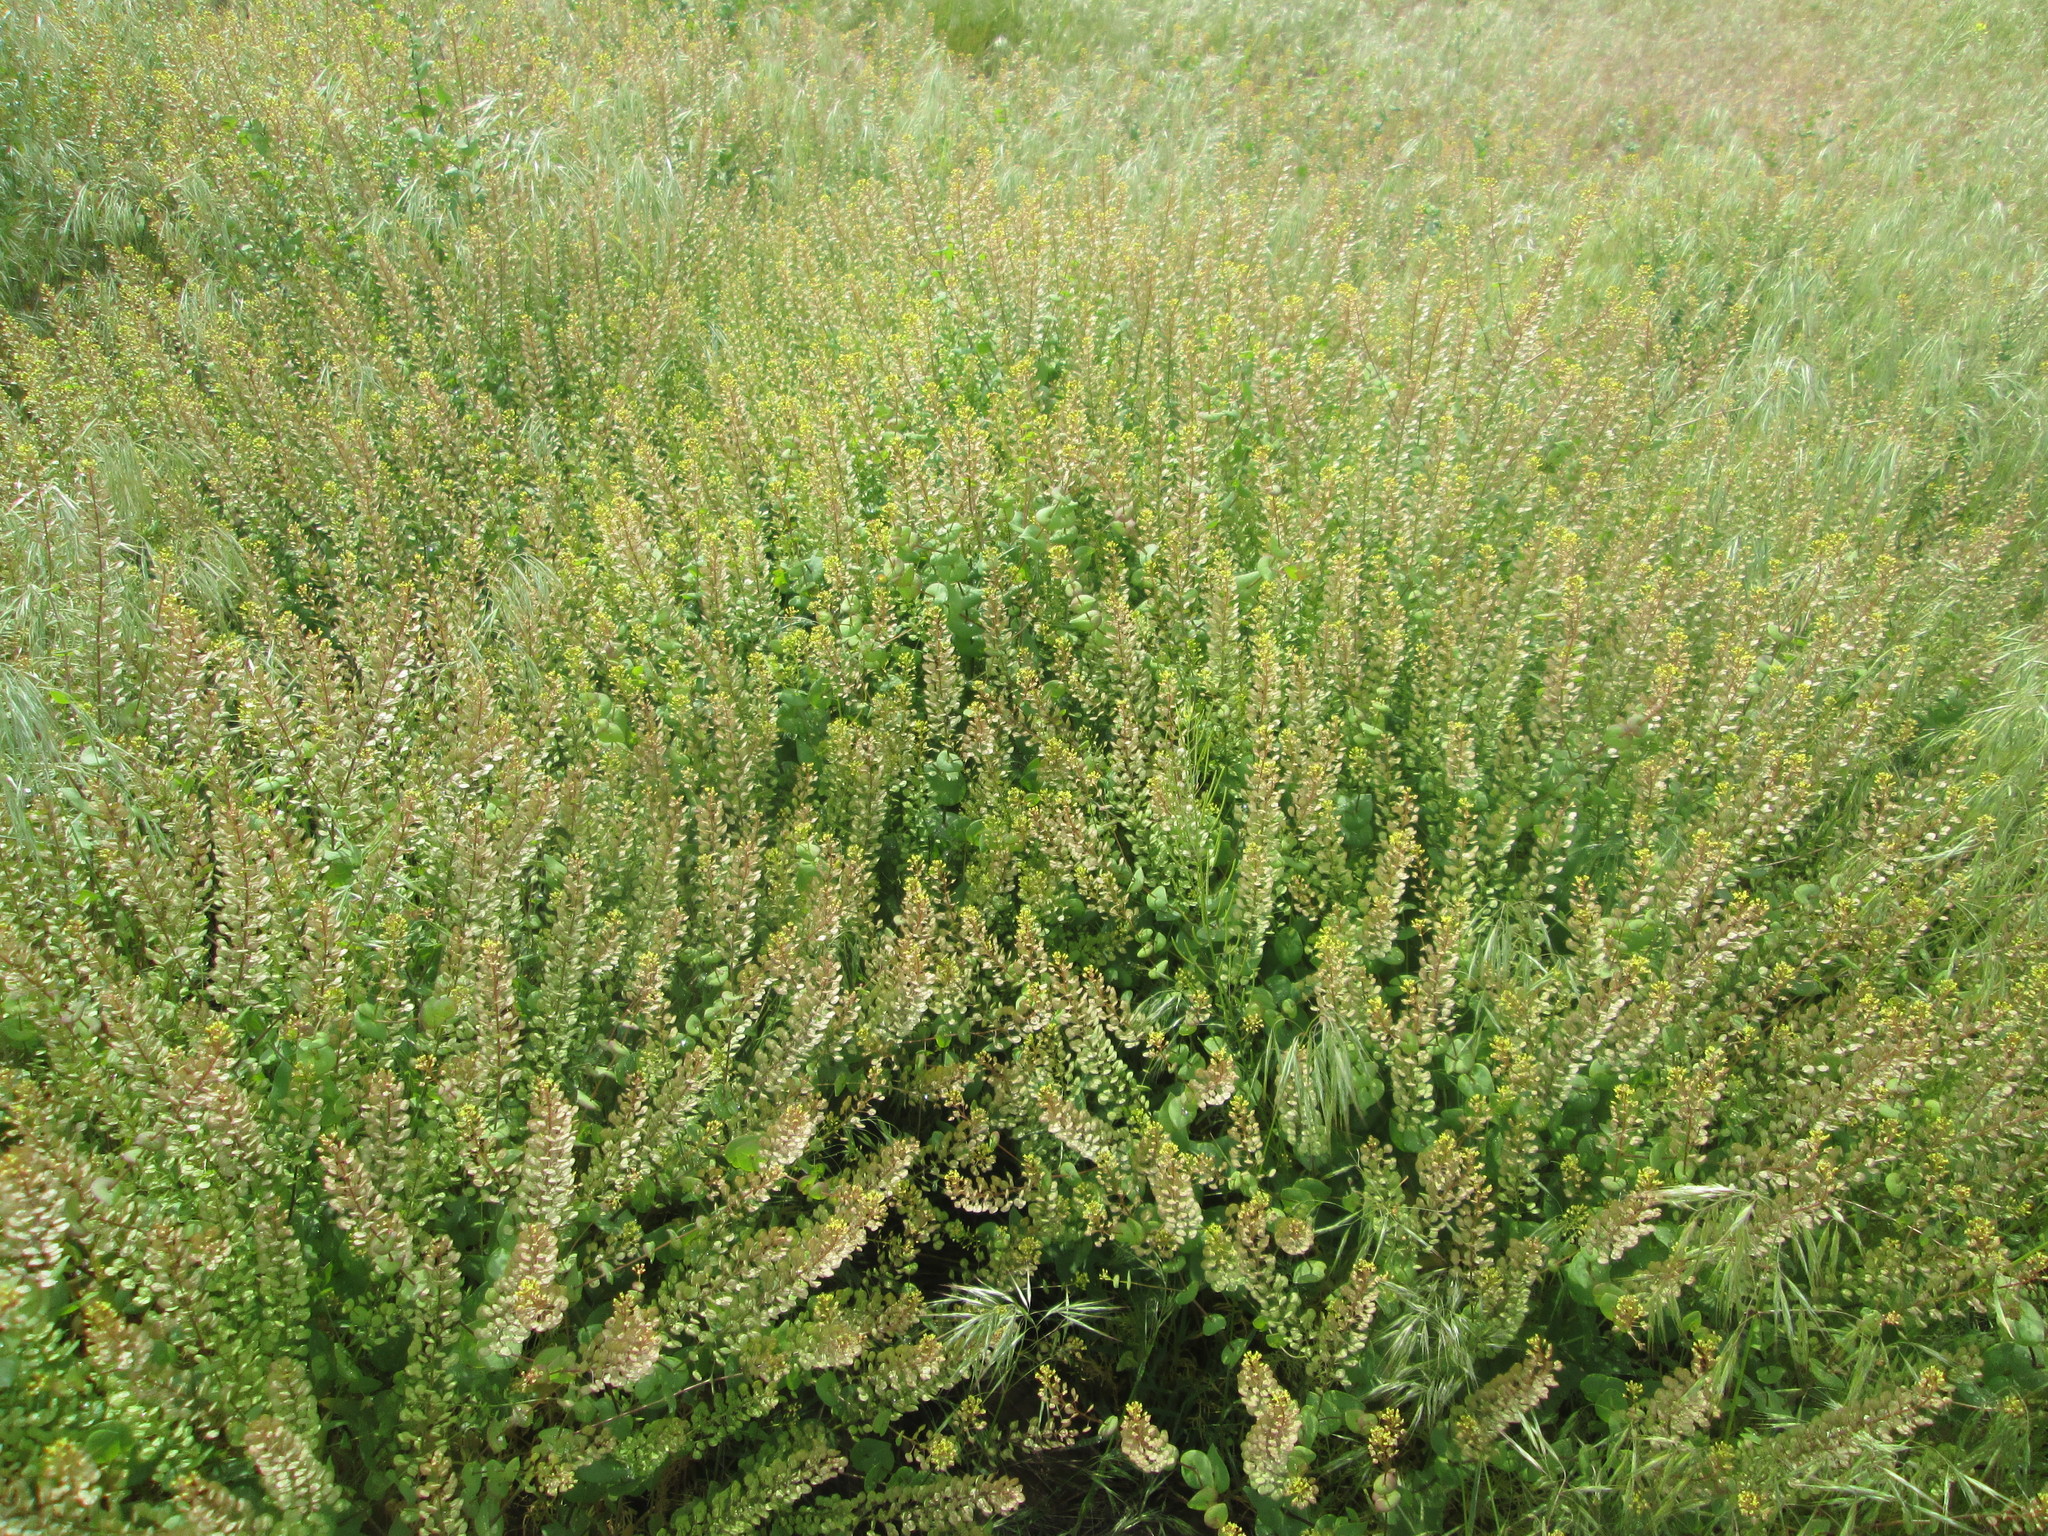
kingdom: Plantae
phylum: Tracheophyta
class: Magnoliopsida
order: Brassicales
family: Brassicaceae
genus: Lepidium
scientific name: Lepidium perfoliatum
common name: Perfoliate pepperwort
